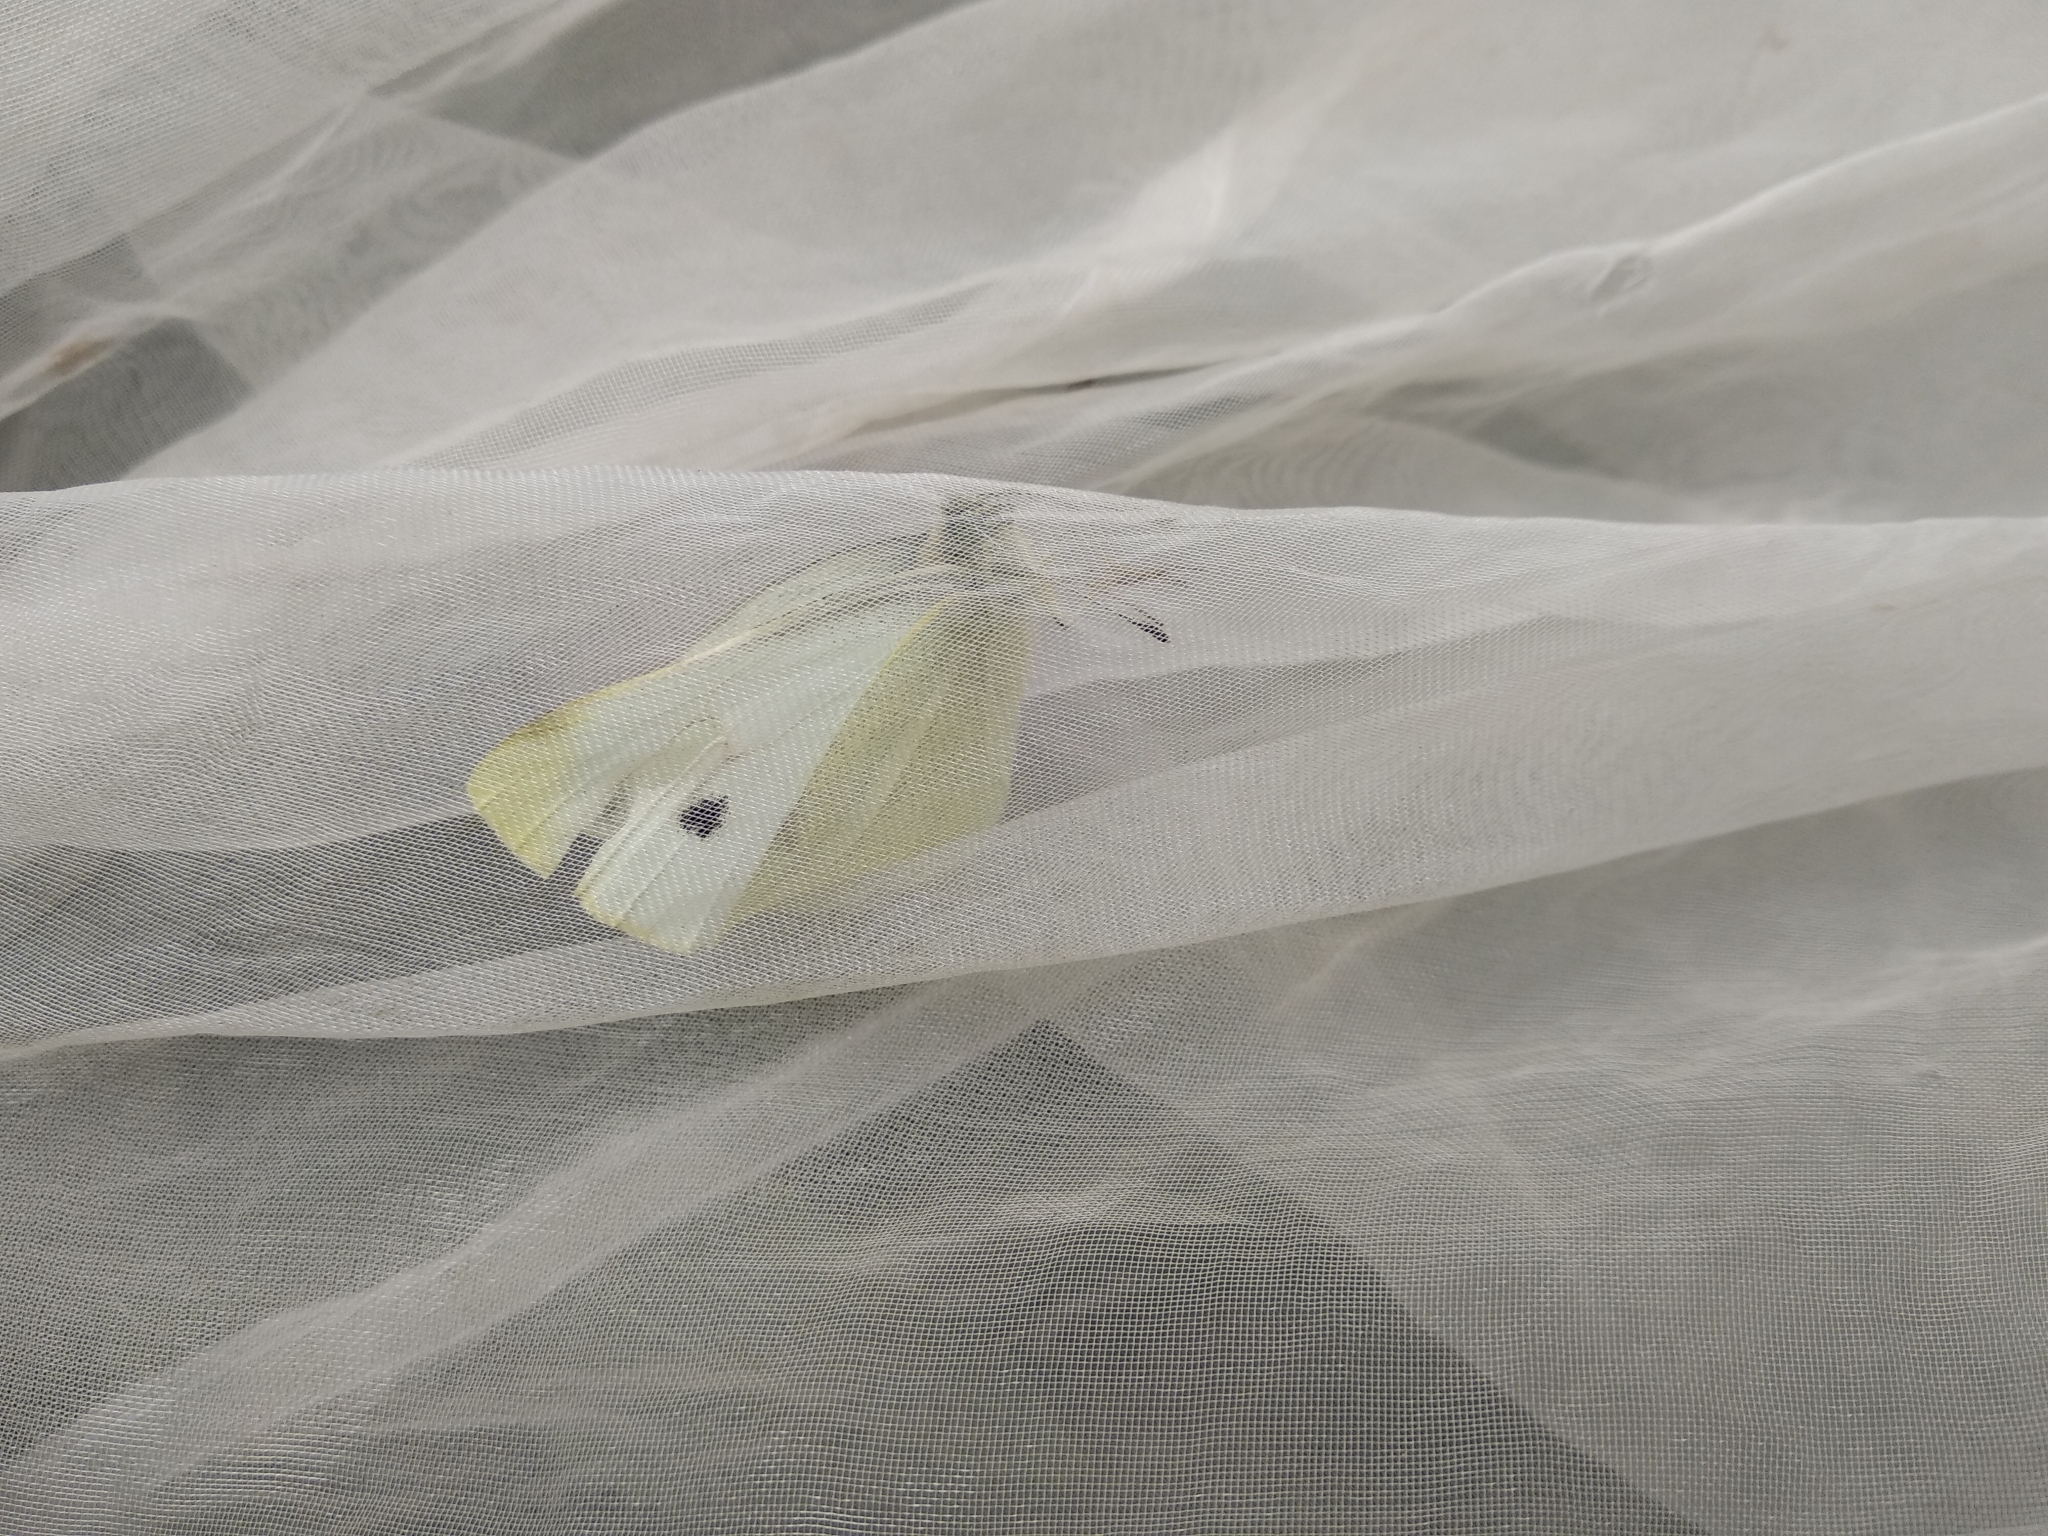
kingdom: Animalia
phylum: Arthropoda
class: Insecta
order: Lepidoptera
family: Pieridae
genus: Pieris
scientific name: Pieris rapae
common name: Small white
